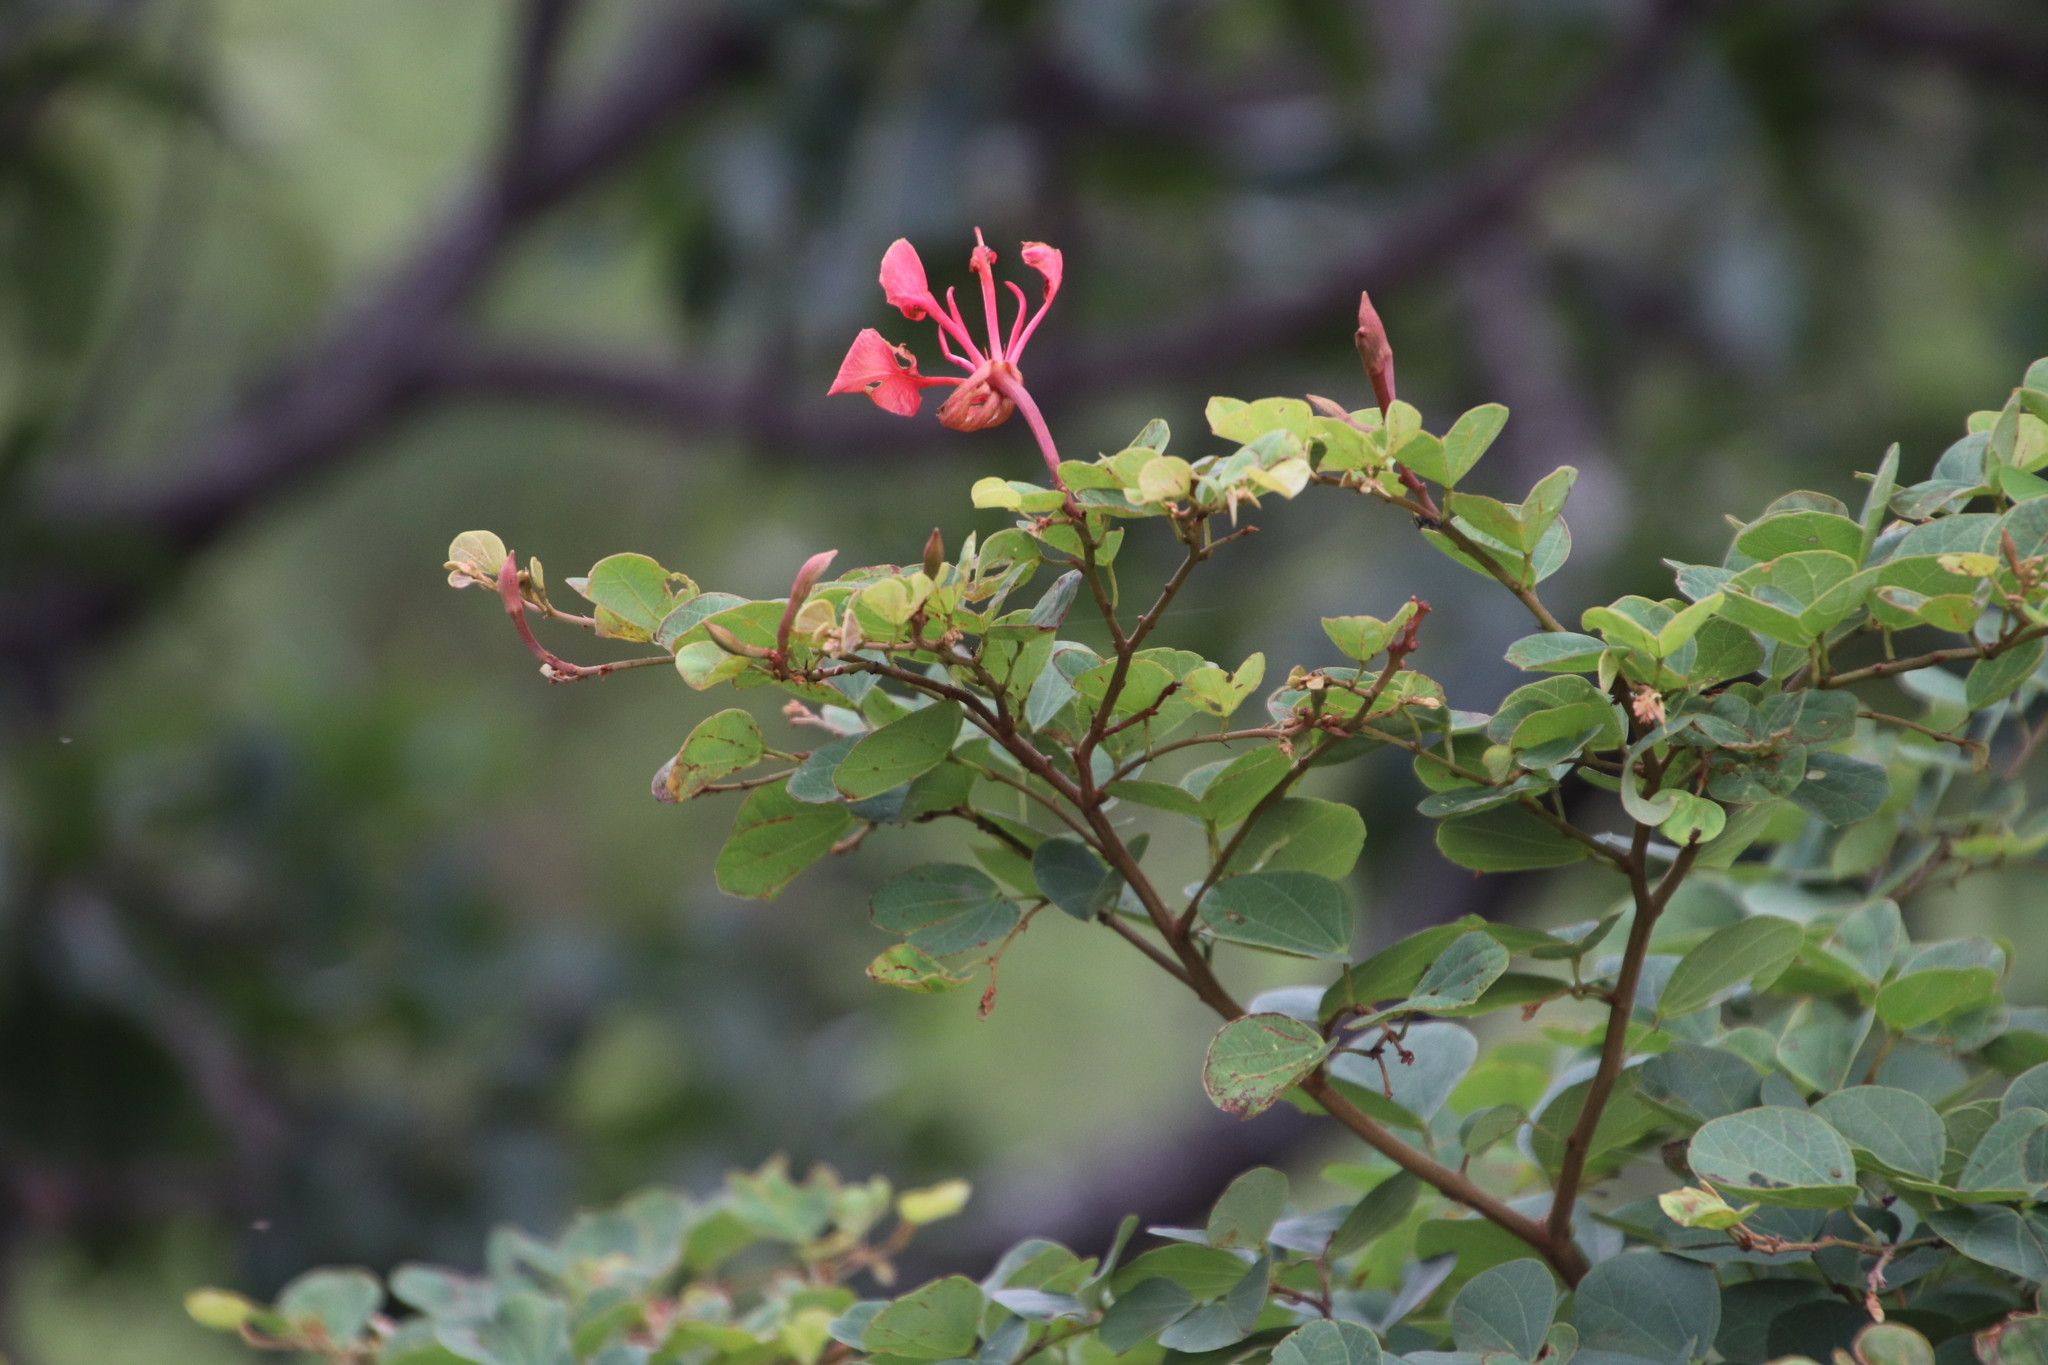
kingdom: Plantae
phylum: Tracheophyta
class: Magnoliopsida
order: Fabales
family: Fabaceae
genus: Bauhinia
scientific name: Bauhinia galpinii
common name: African plume
